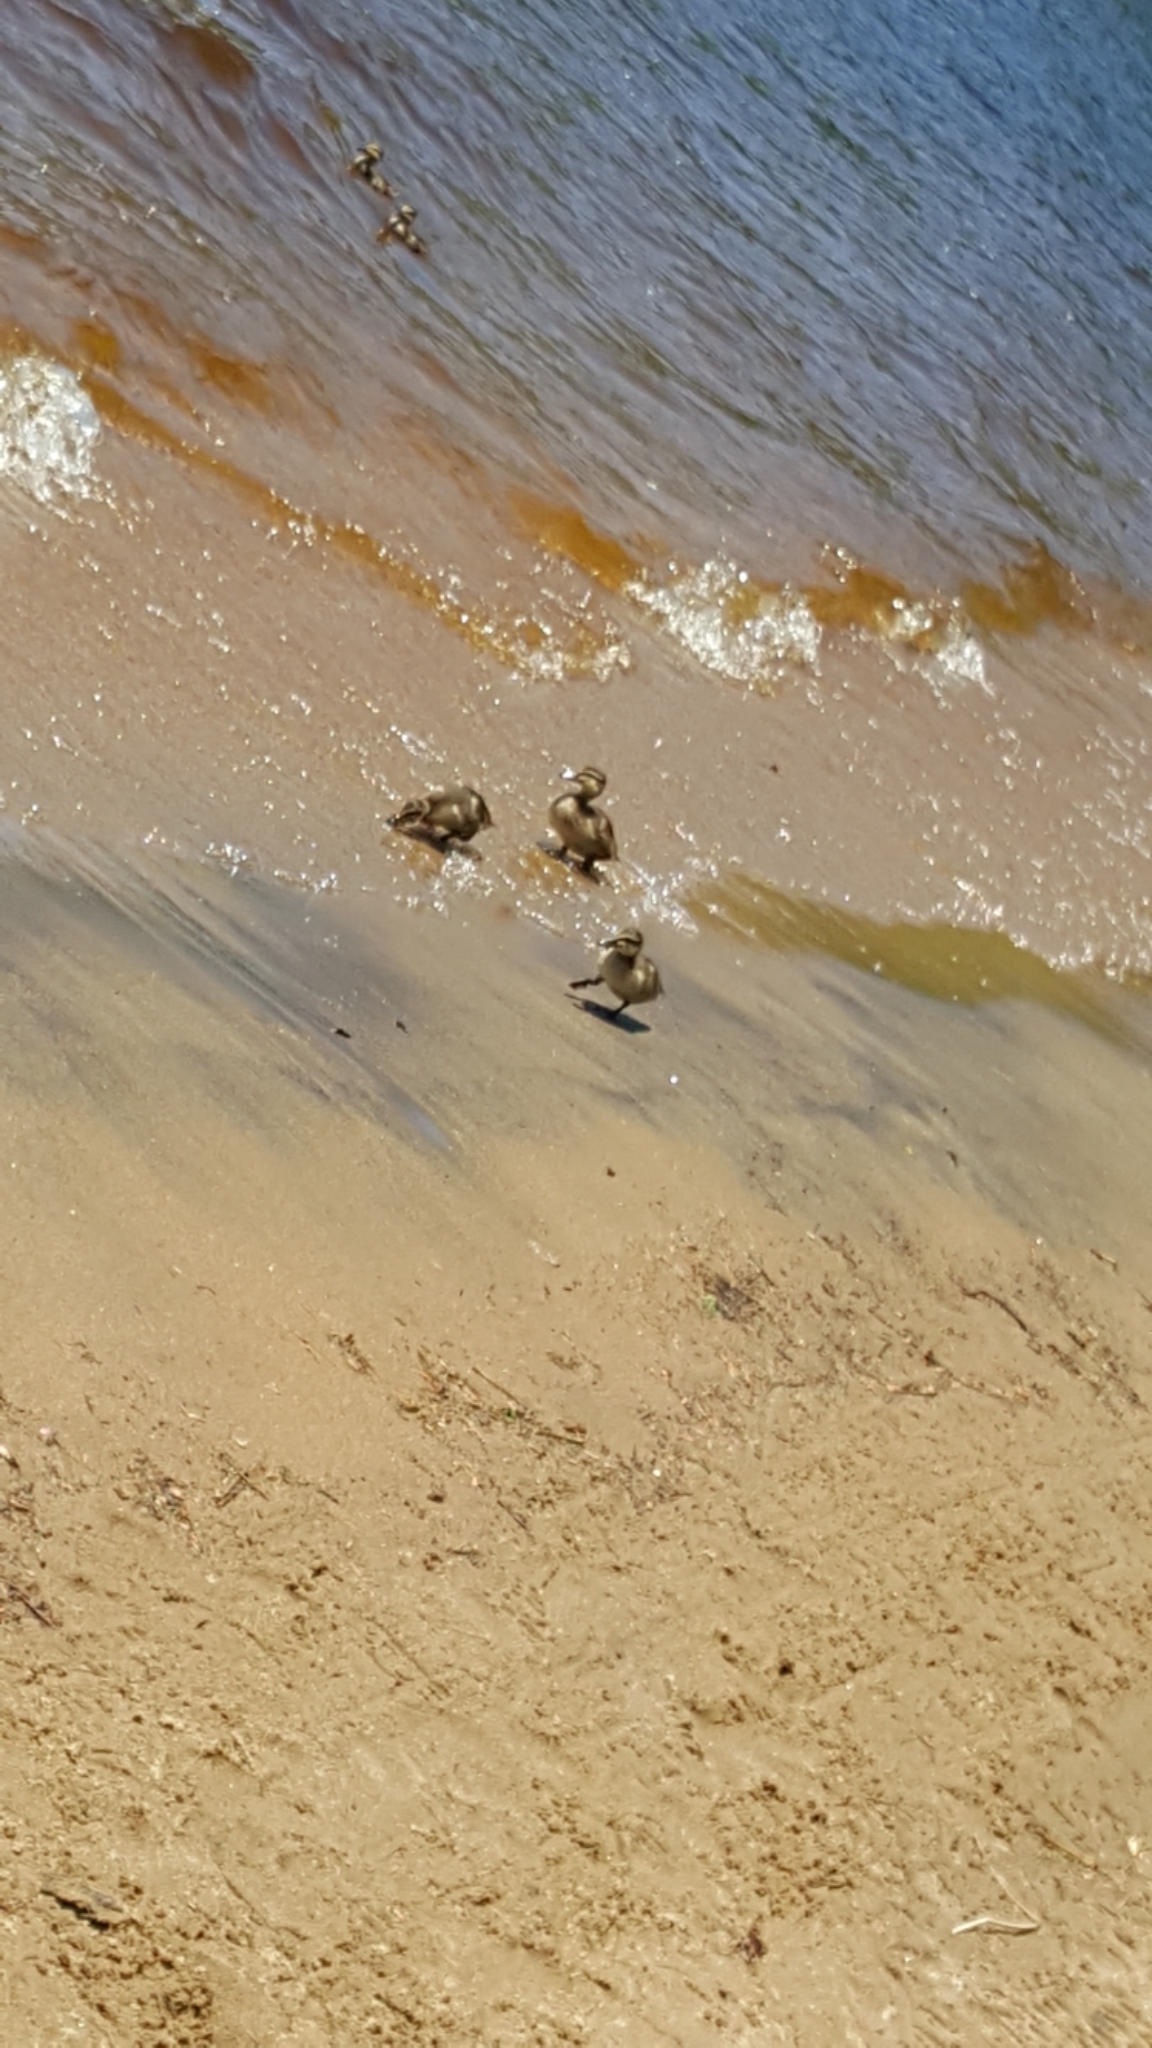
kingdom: Animalia
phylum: Chordata
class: Aves
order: Anseriformes
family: Anatidae
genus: Anas
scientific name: Anas platyrhynchos
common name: Mallard
